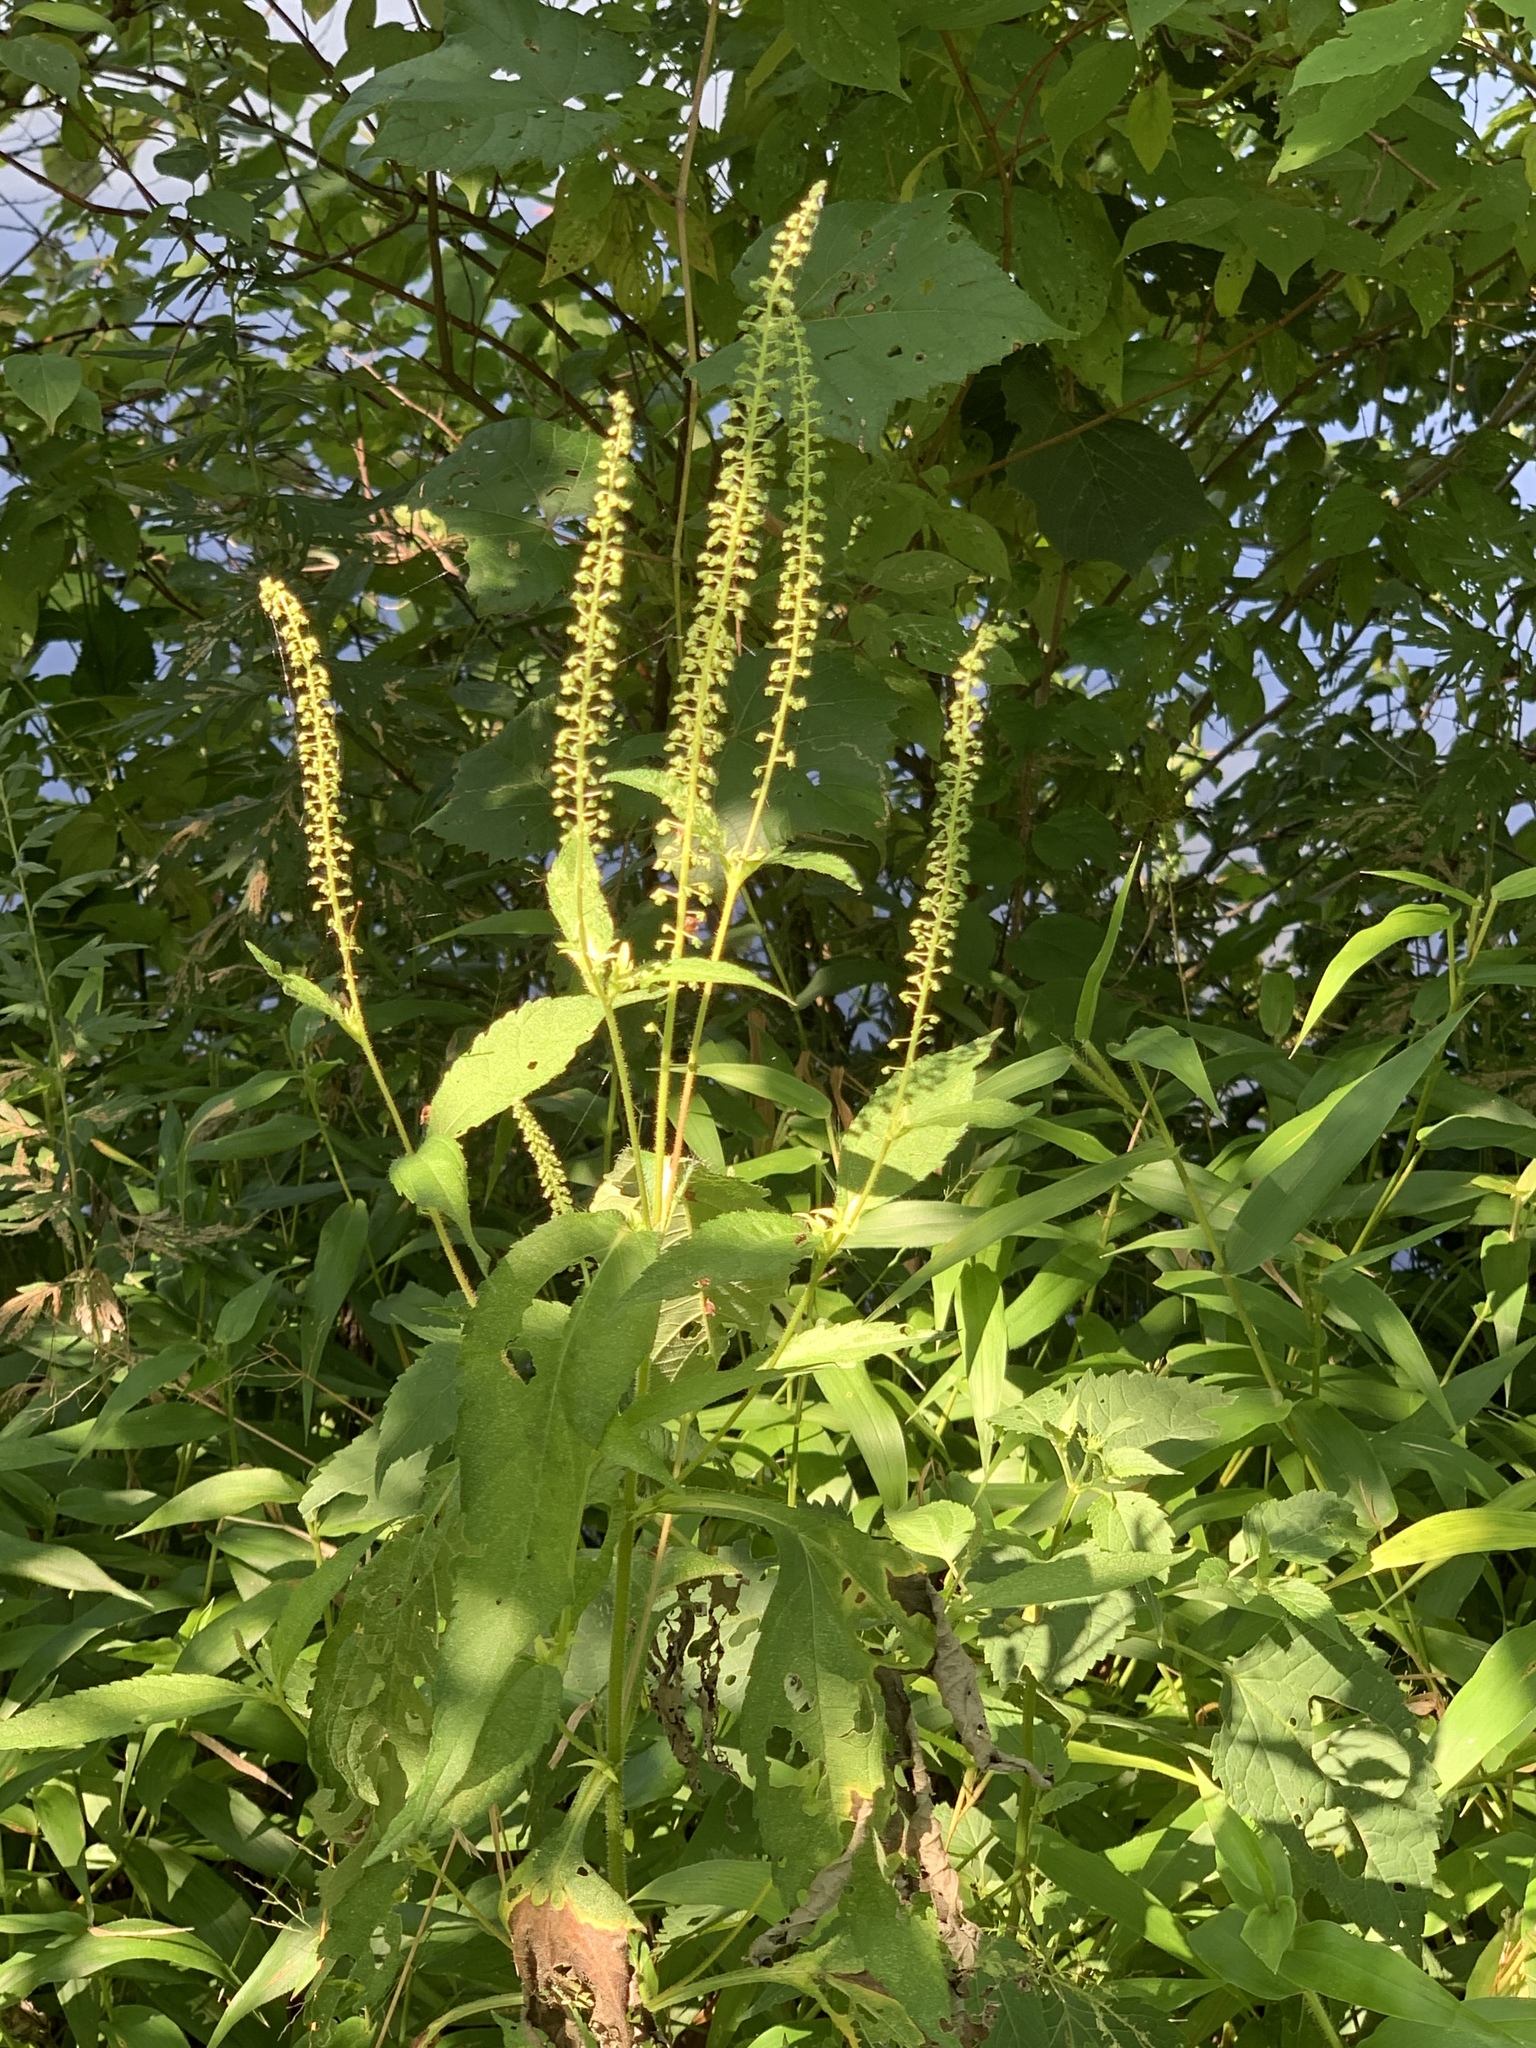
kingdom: Plantae
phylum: Tracheophyta
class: Magnoliopsida
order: Asterales
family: Asteraceae
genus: Ambrosia
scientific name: Ambrosia trifida
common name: Giant ragweed
